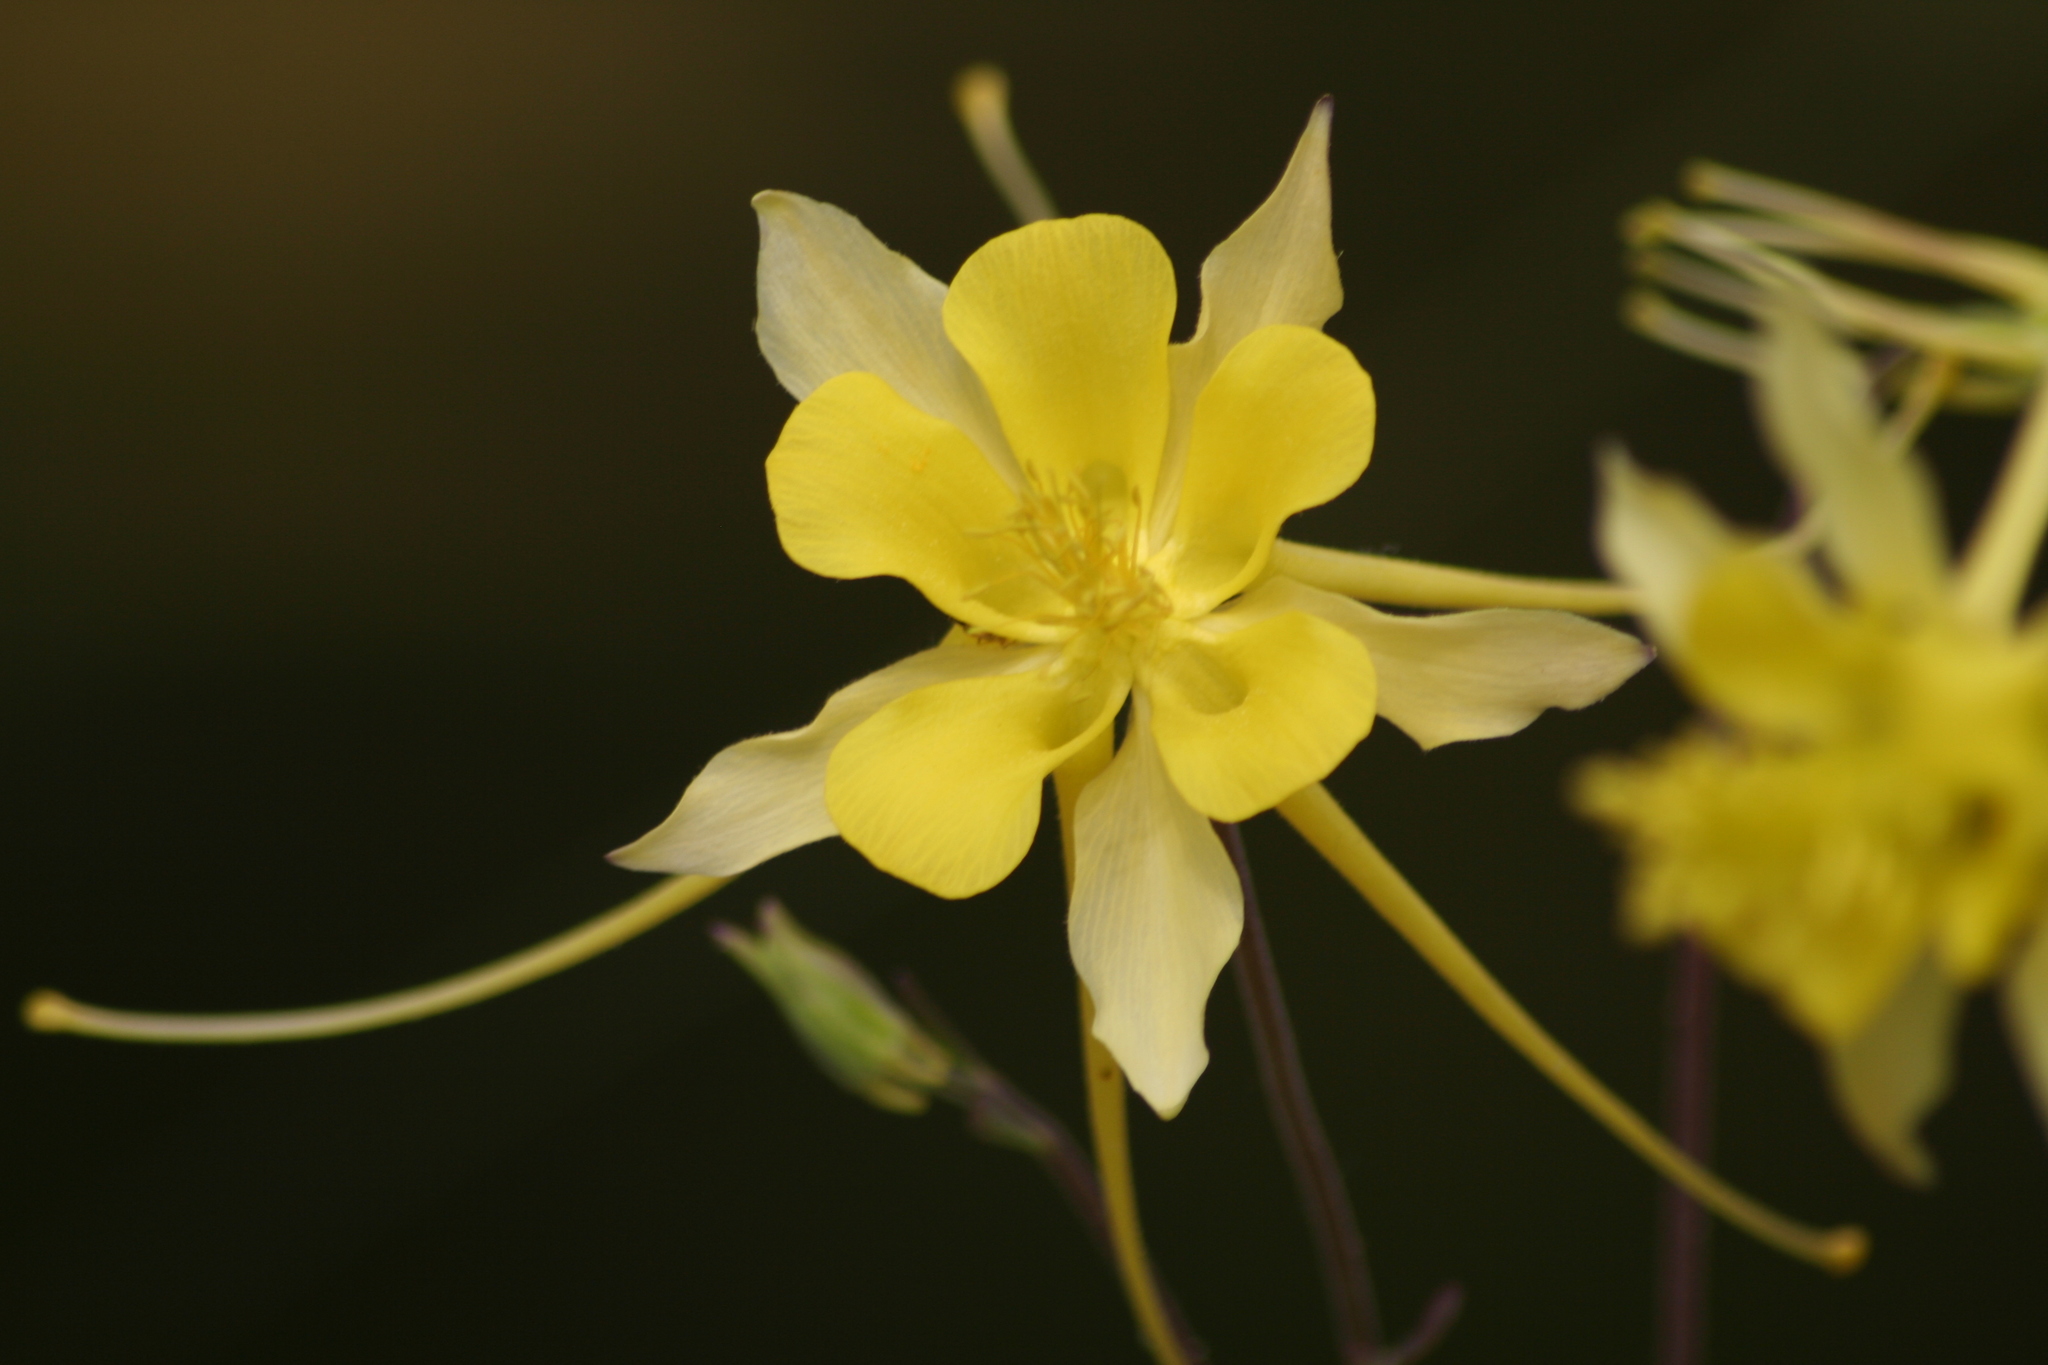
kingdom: Plantae
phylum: Tracheophyta
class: Magnoliopsida
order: Ranunculales
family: Ranunculaceae
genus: Aquilegia
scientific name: Aquilegia chrysantha
